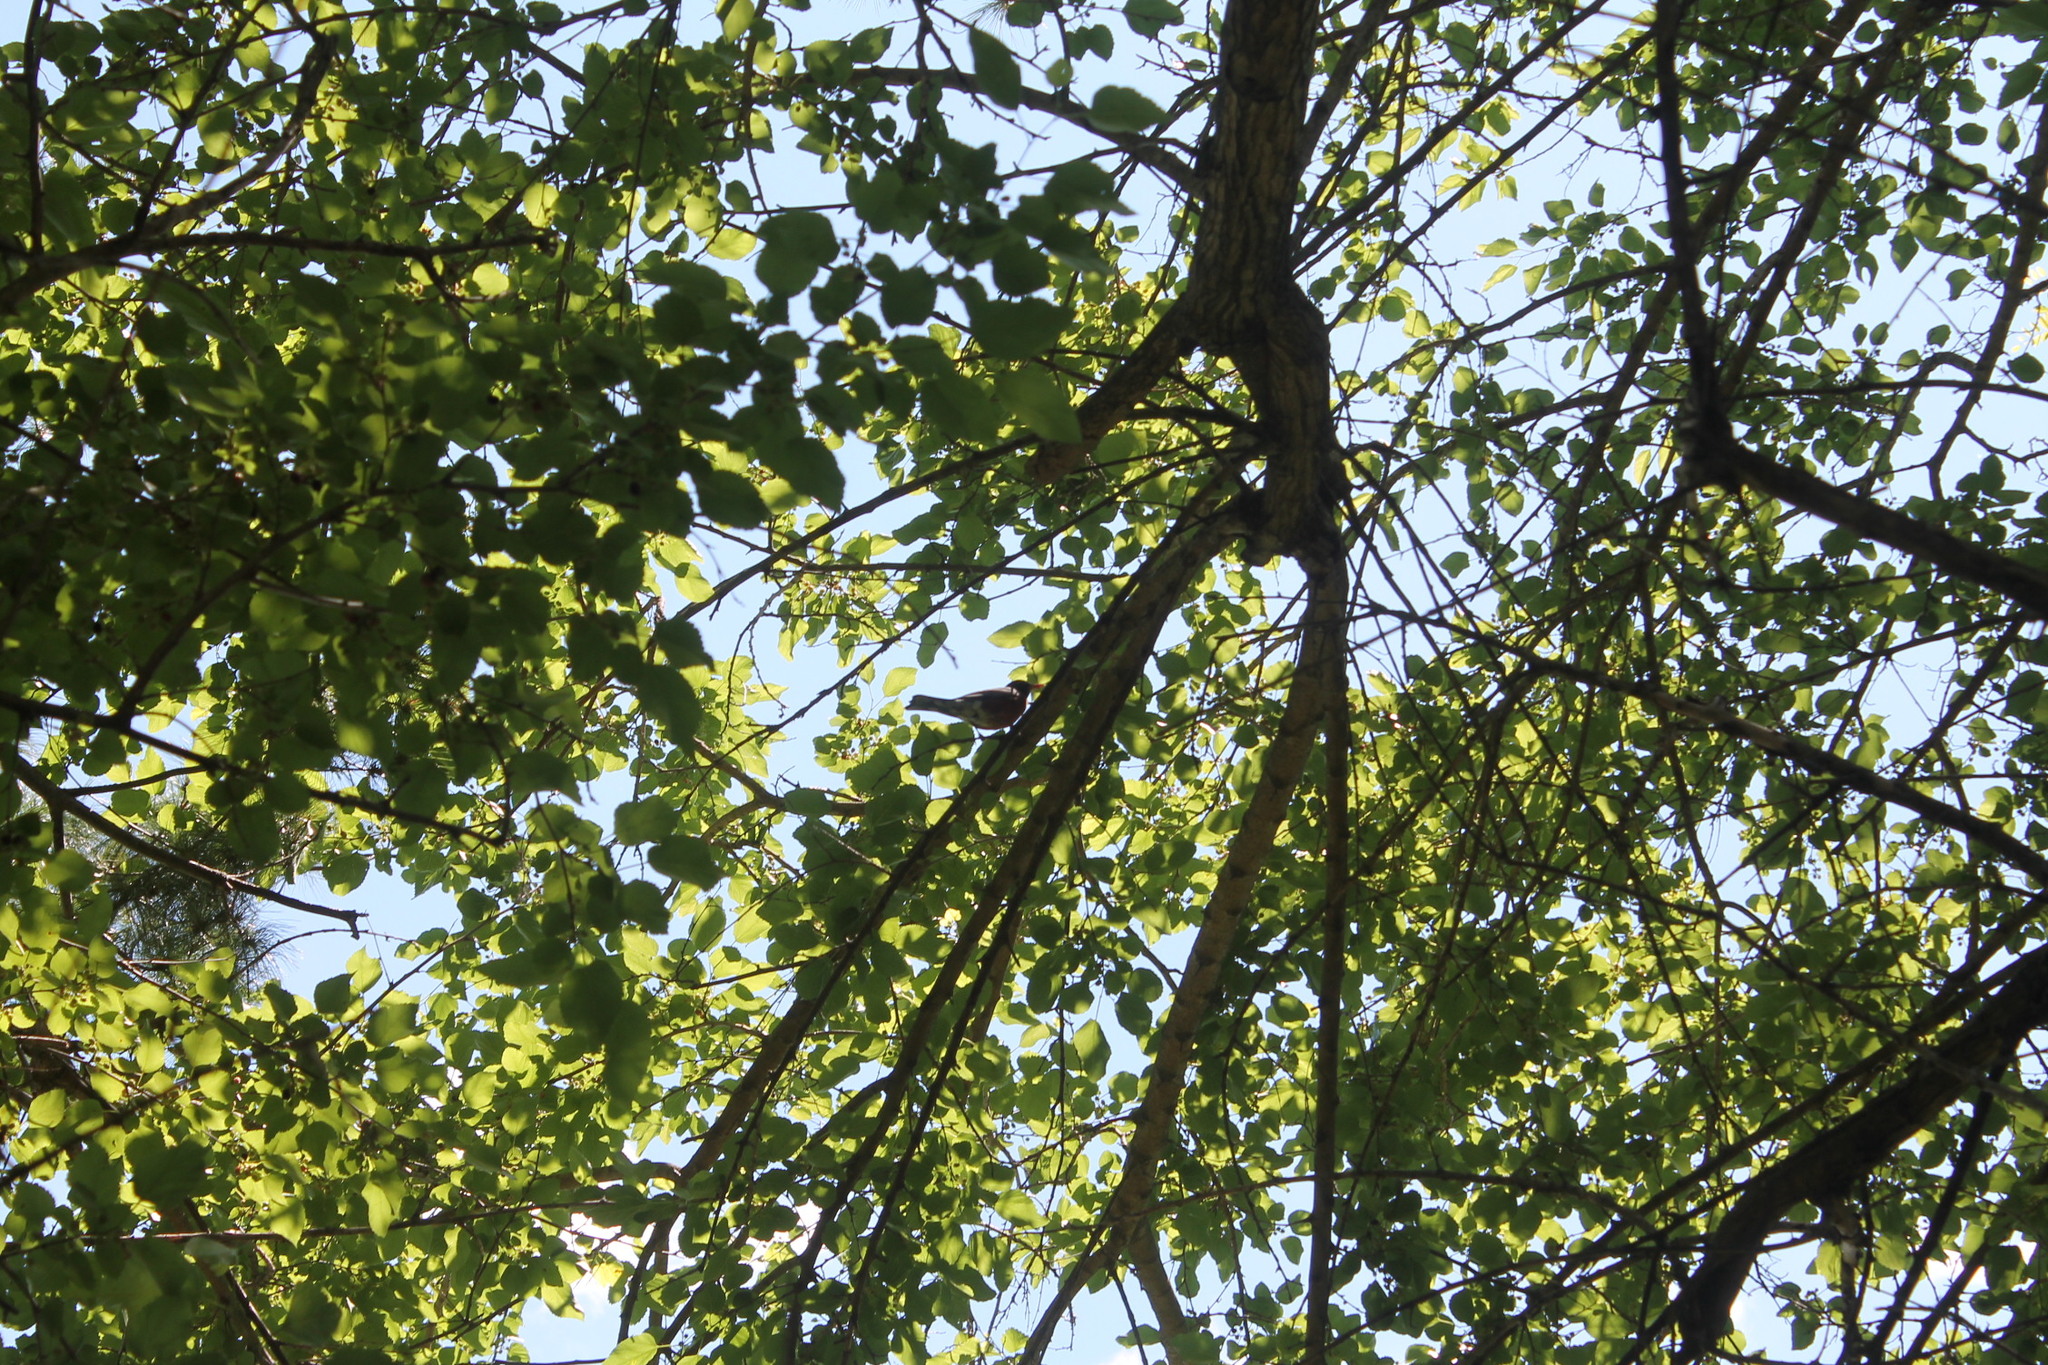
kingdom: Animalia
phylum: Chordata
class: Aves
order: Passeriformes
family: Turdidae
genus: Turdus
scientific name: Turdus migratorius
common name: American robin
